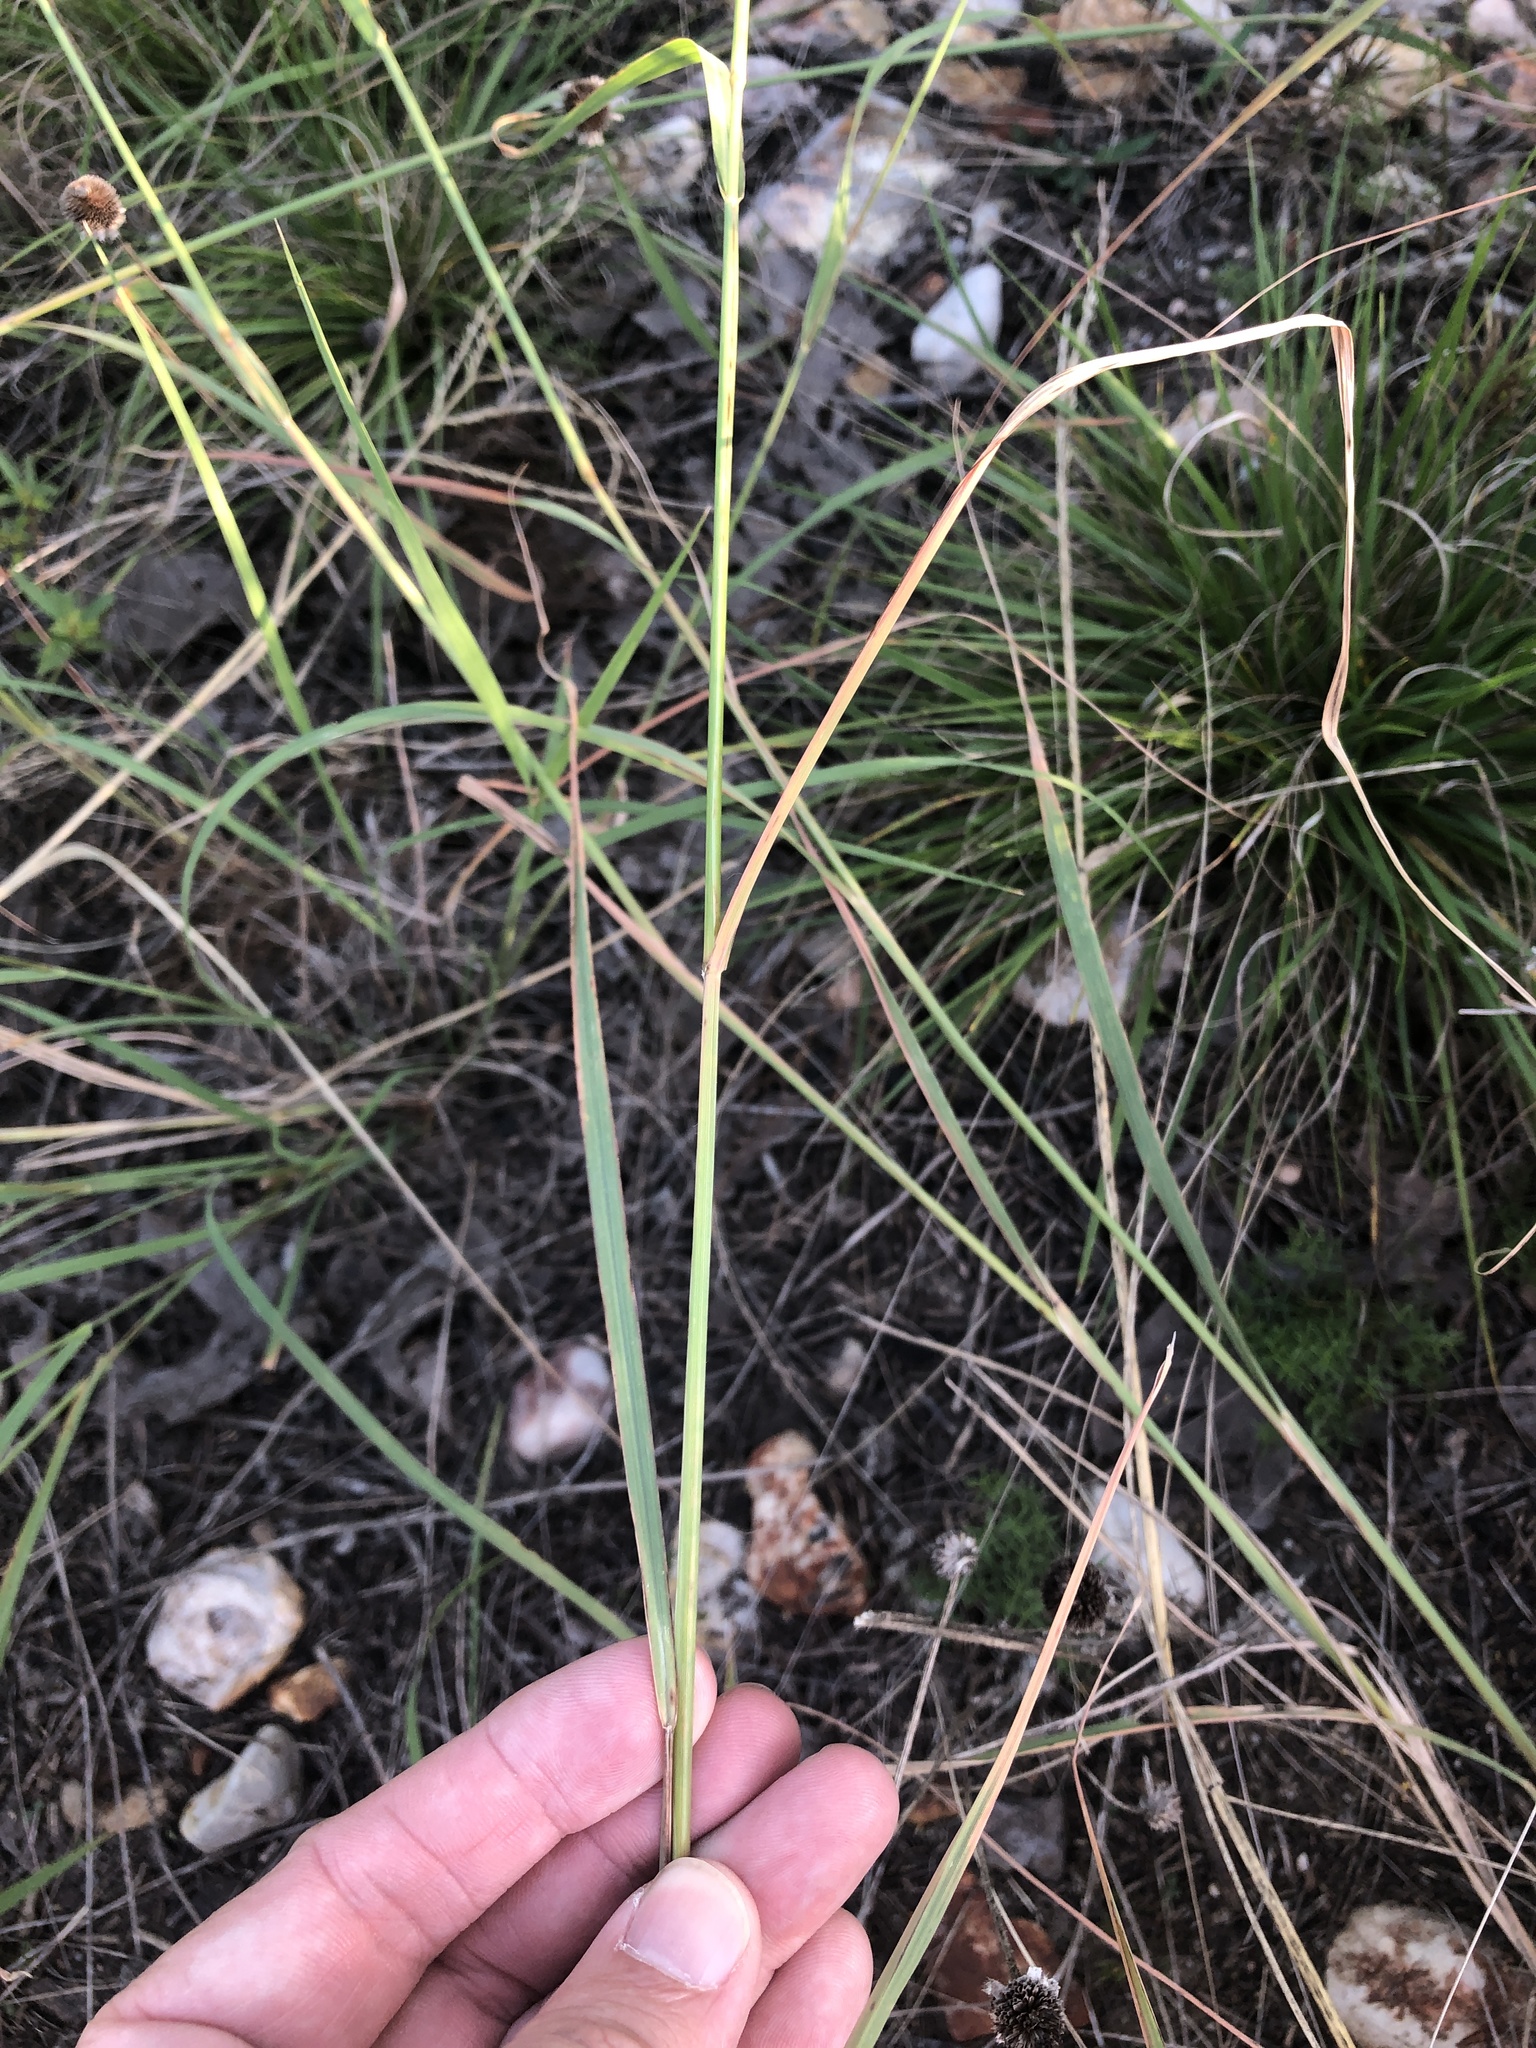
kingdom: Plantae
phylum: Tracheophyta
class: Liliopsida
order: Poales
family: Poaceae
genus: Disakisperma
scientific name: Disakisperma dubium
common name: Green sprangletop
